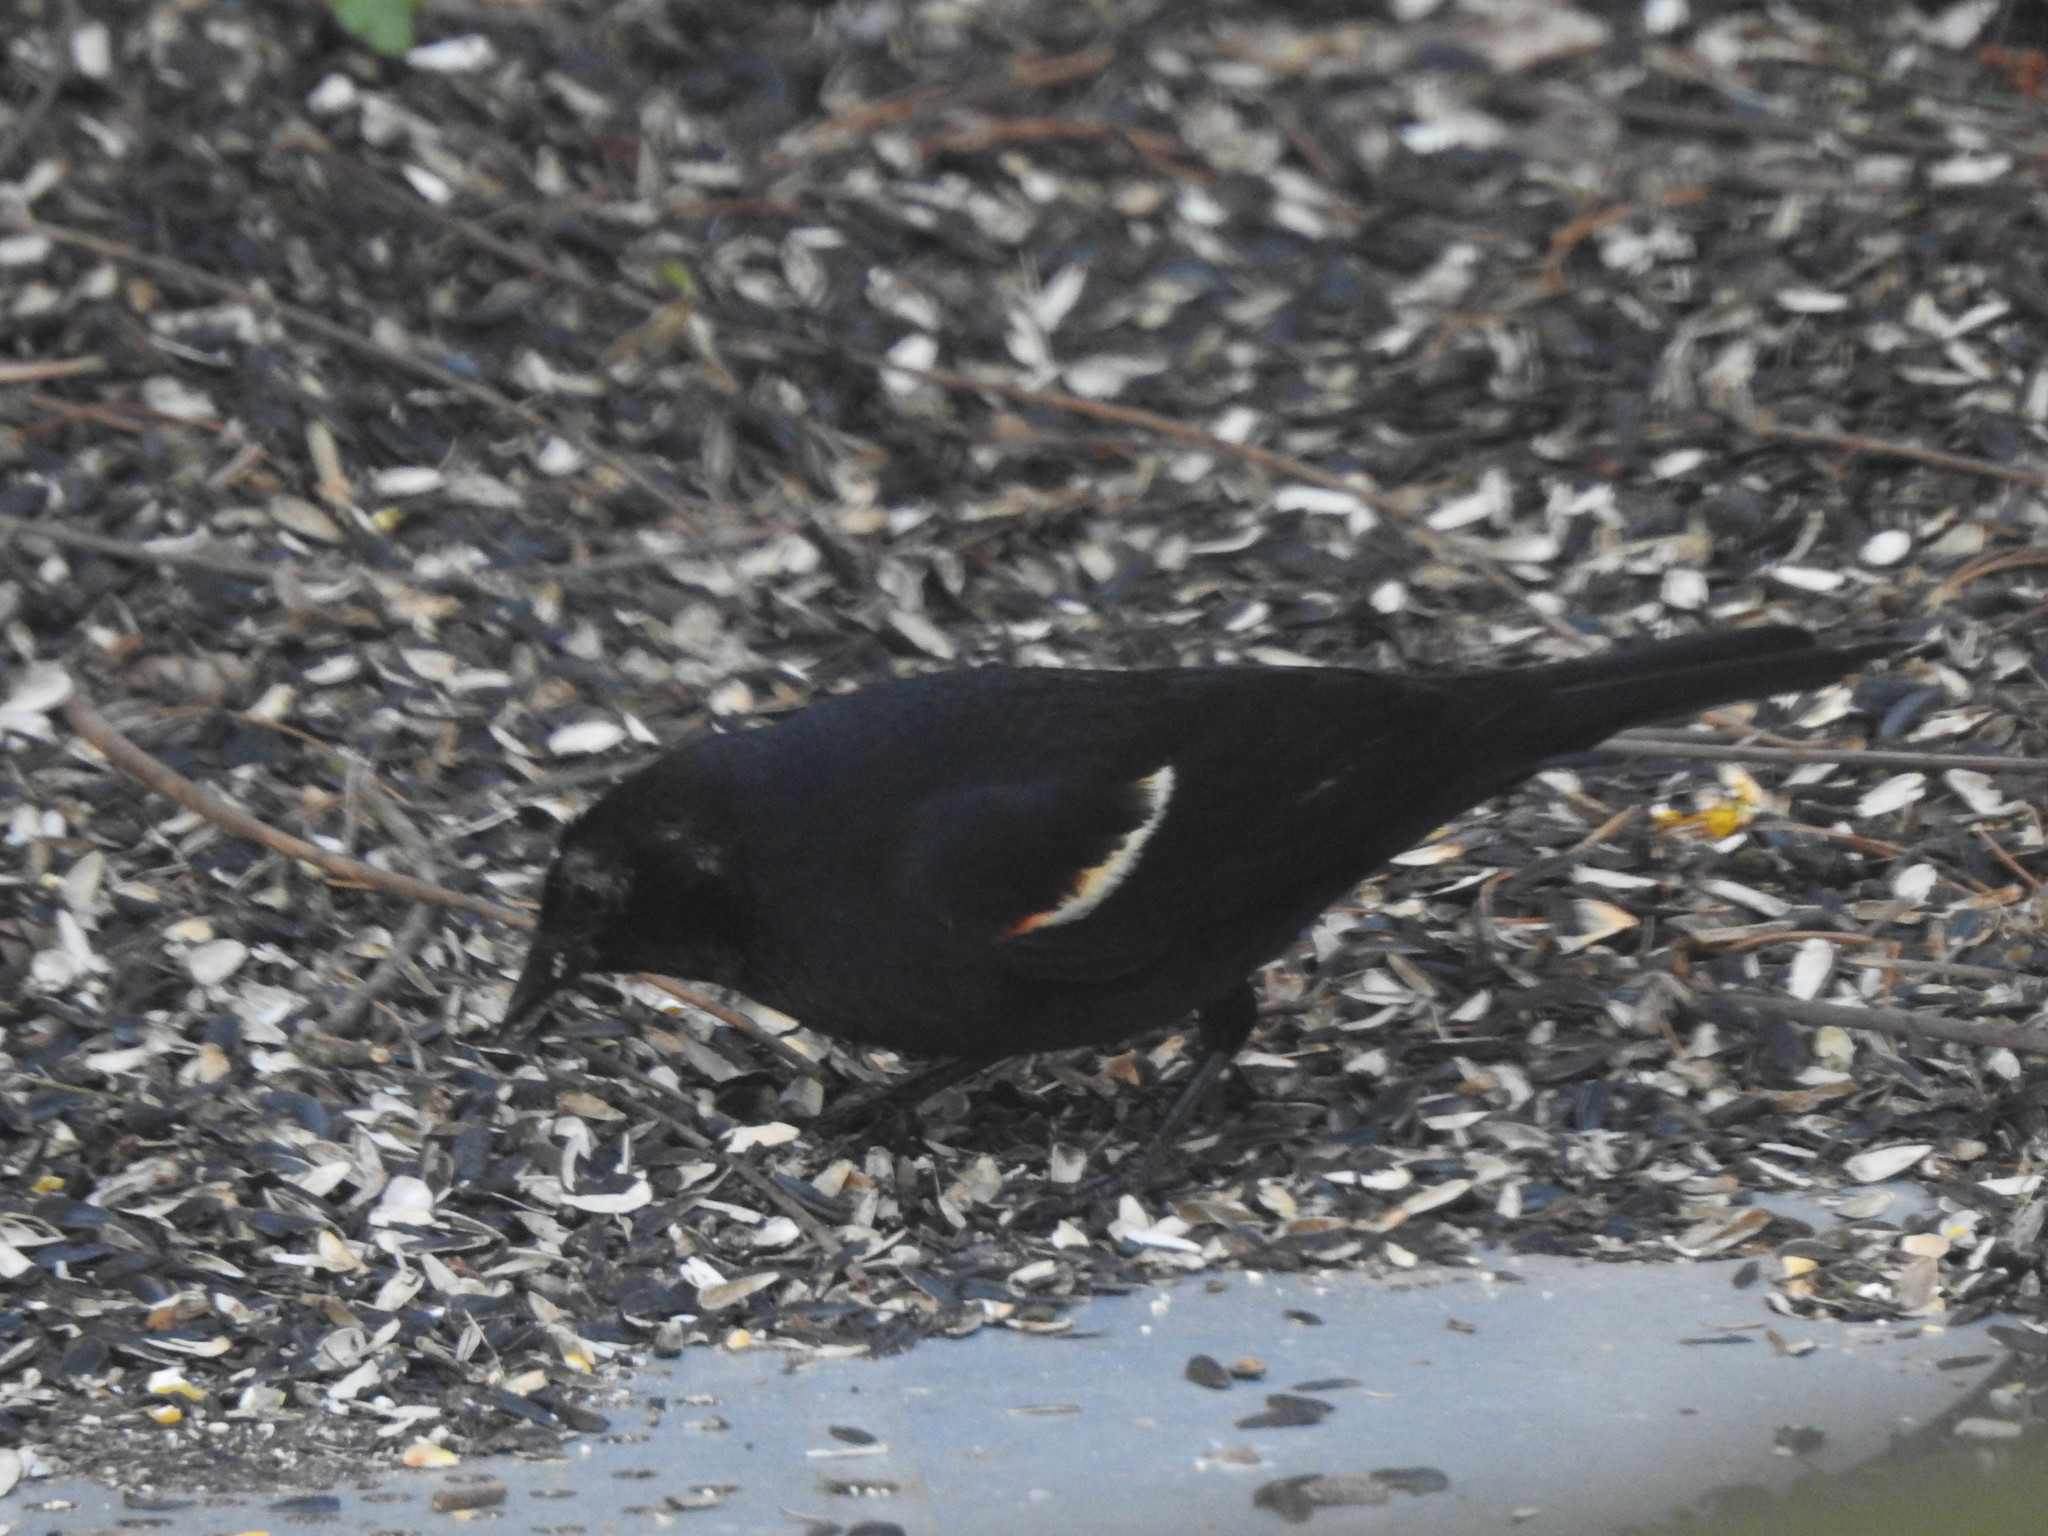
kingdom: Animalia
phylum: Chordata
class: Aves
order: Passeriformes
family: Icteridae
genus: Agelaius
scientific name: Agelaius phoeniceus
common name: Red-winged blackbird
